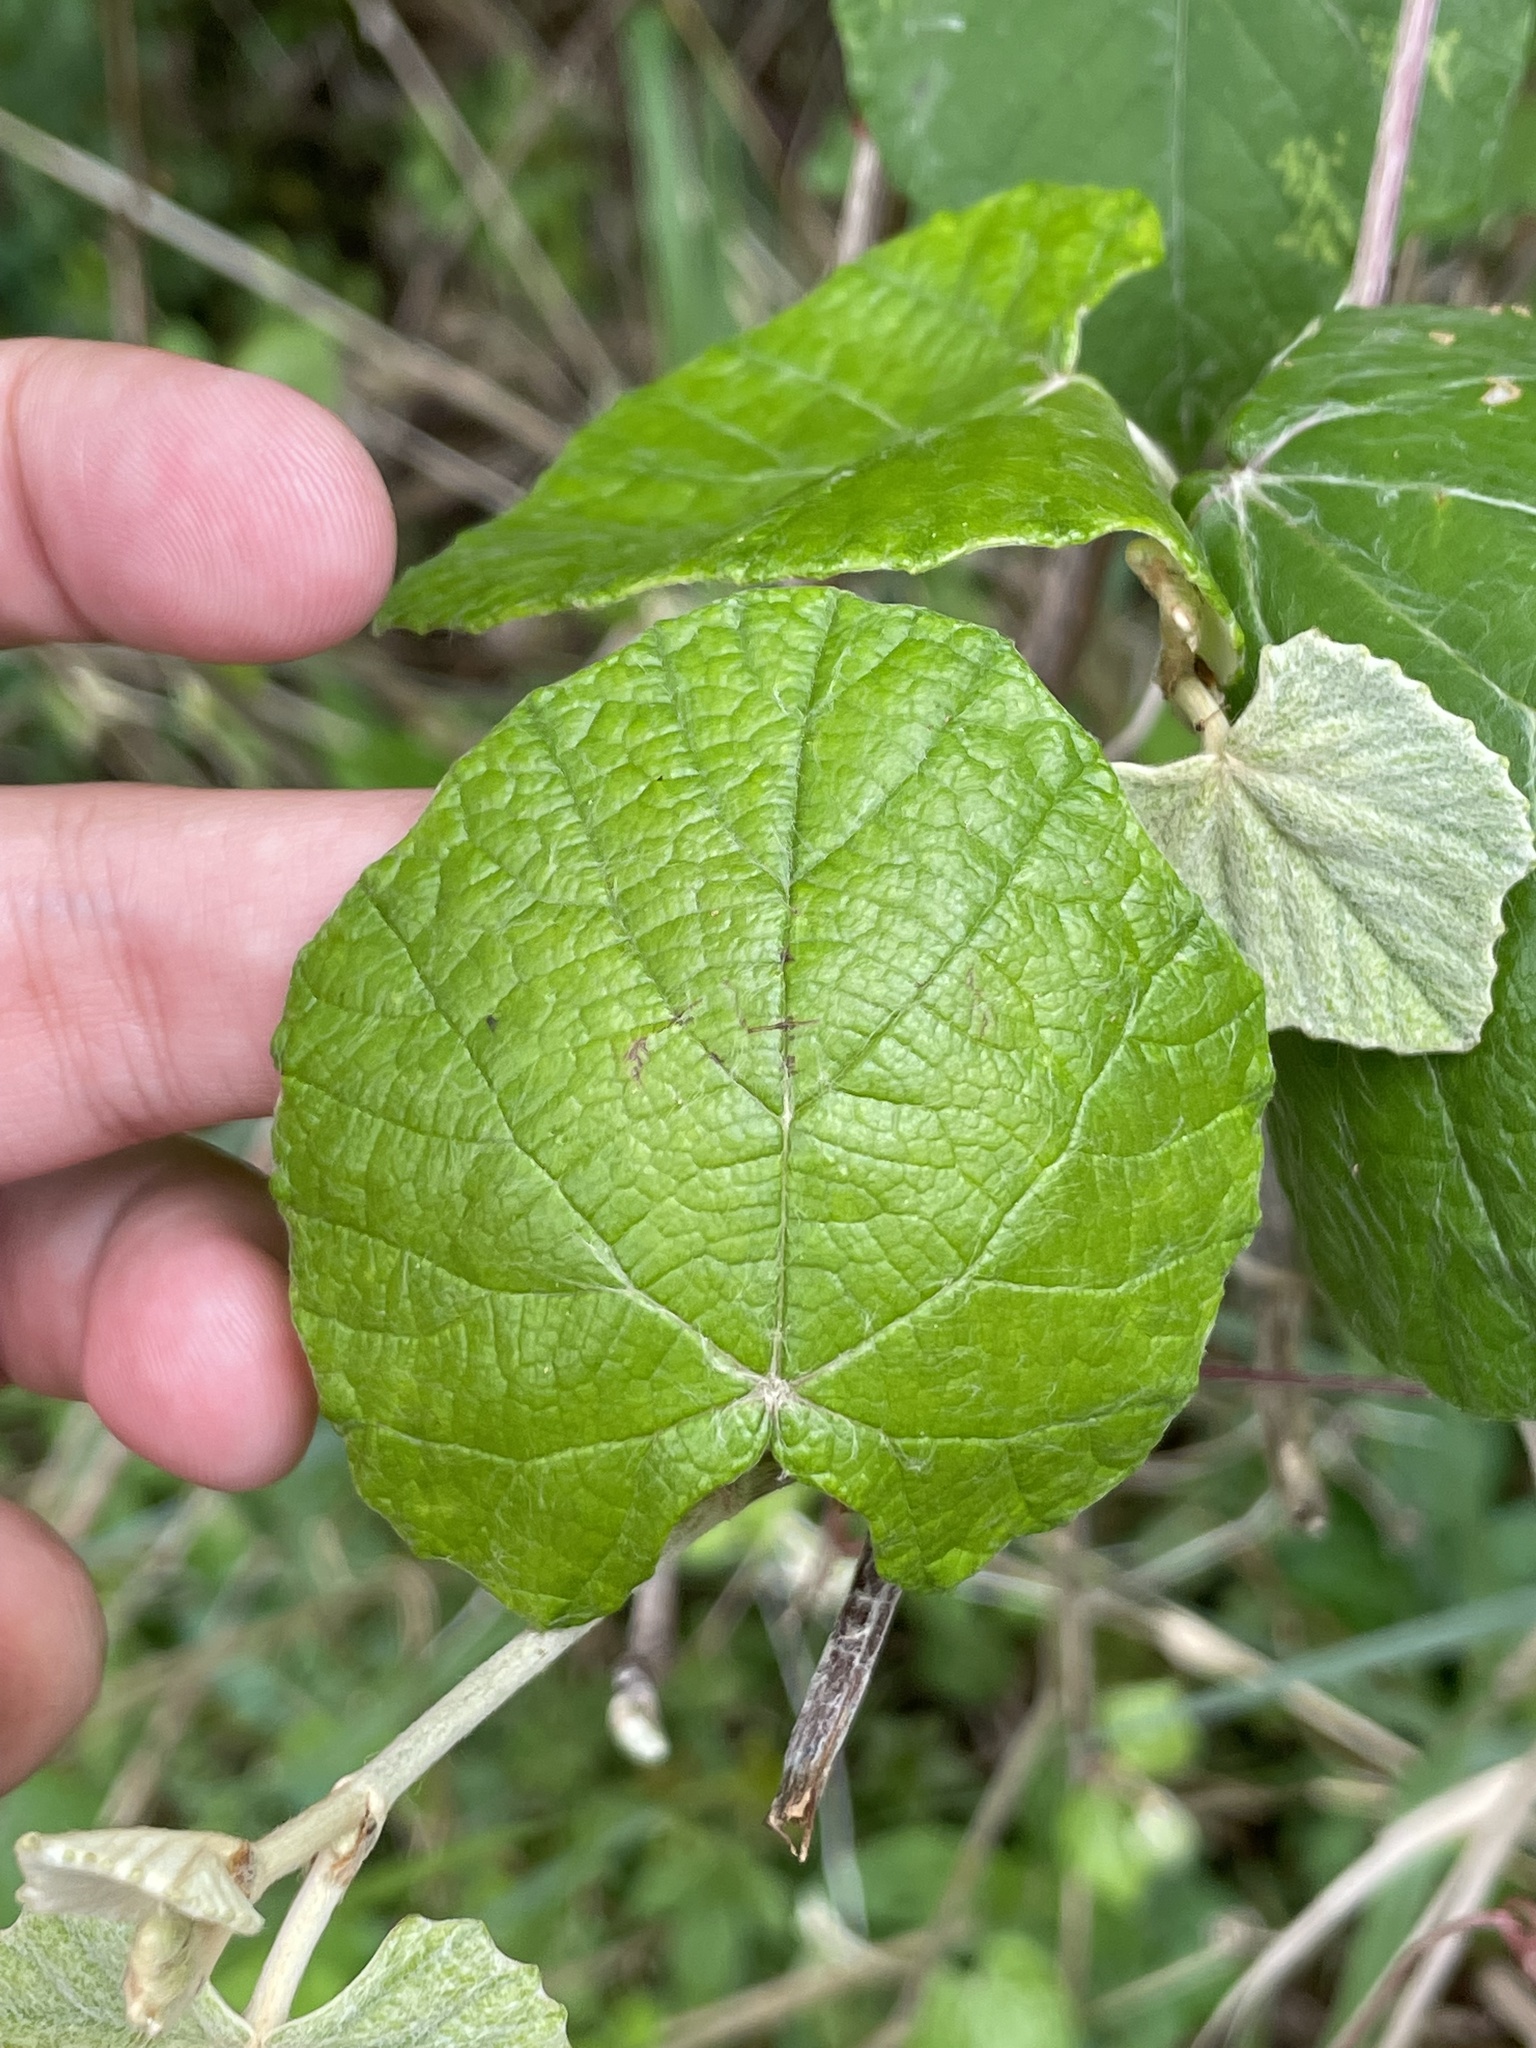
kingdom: Plantae
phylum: Tracheophyta
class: Magnoliopsida
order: Vitales
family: Vitaceae
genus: Vitis
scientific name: Vitis mustangensis
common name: Mustang grape
